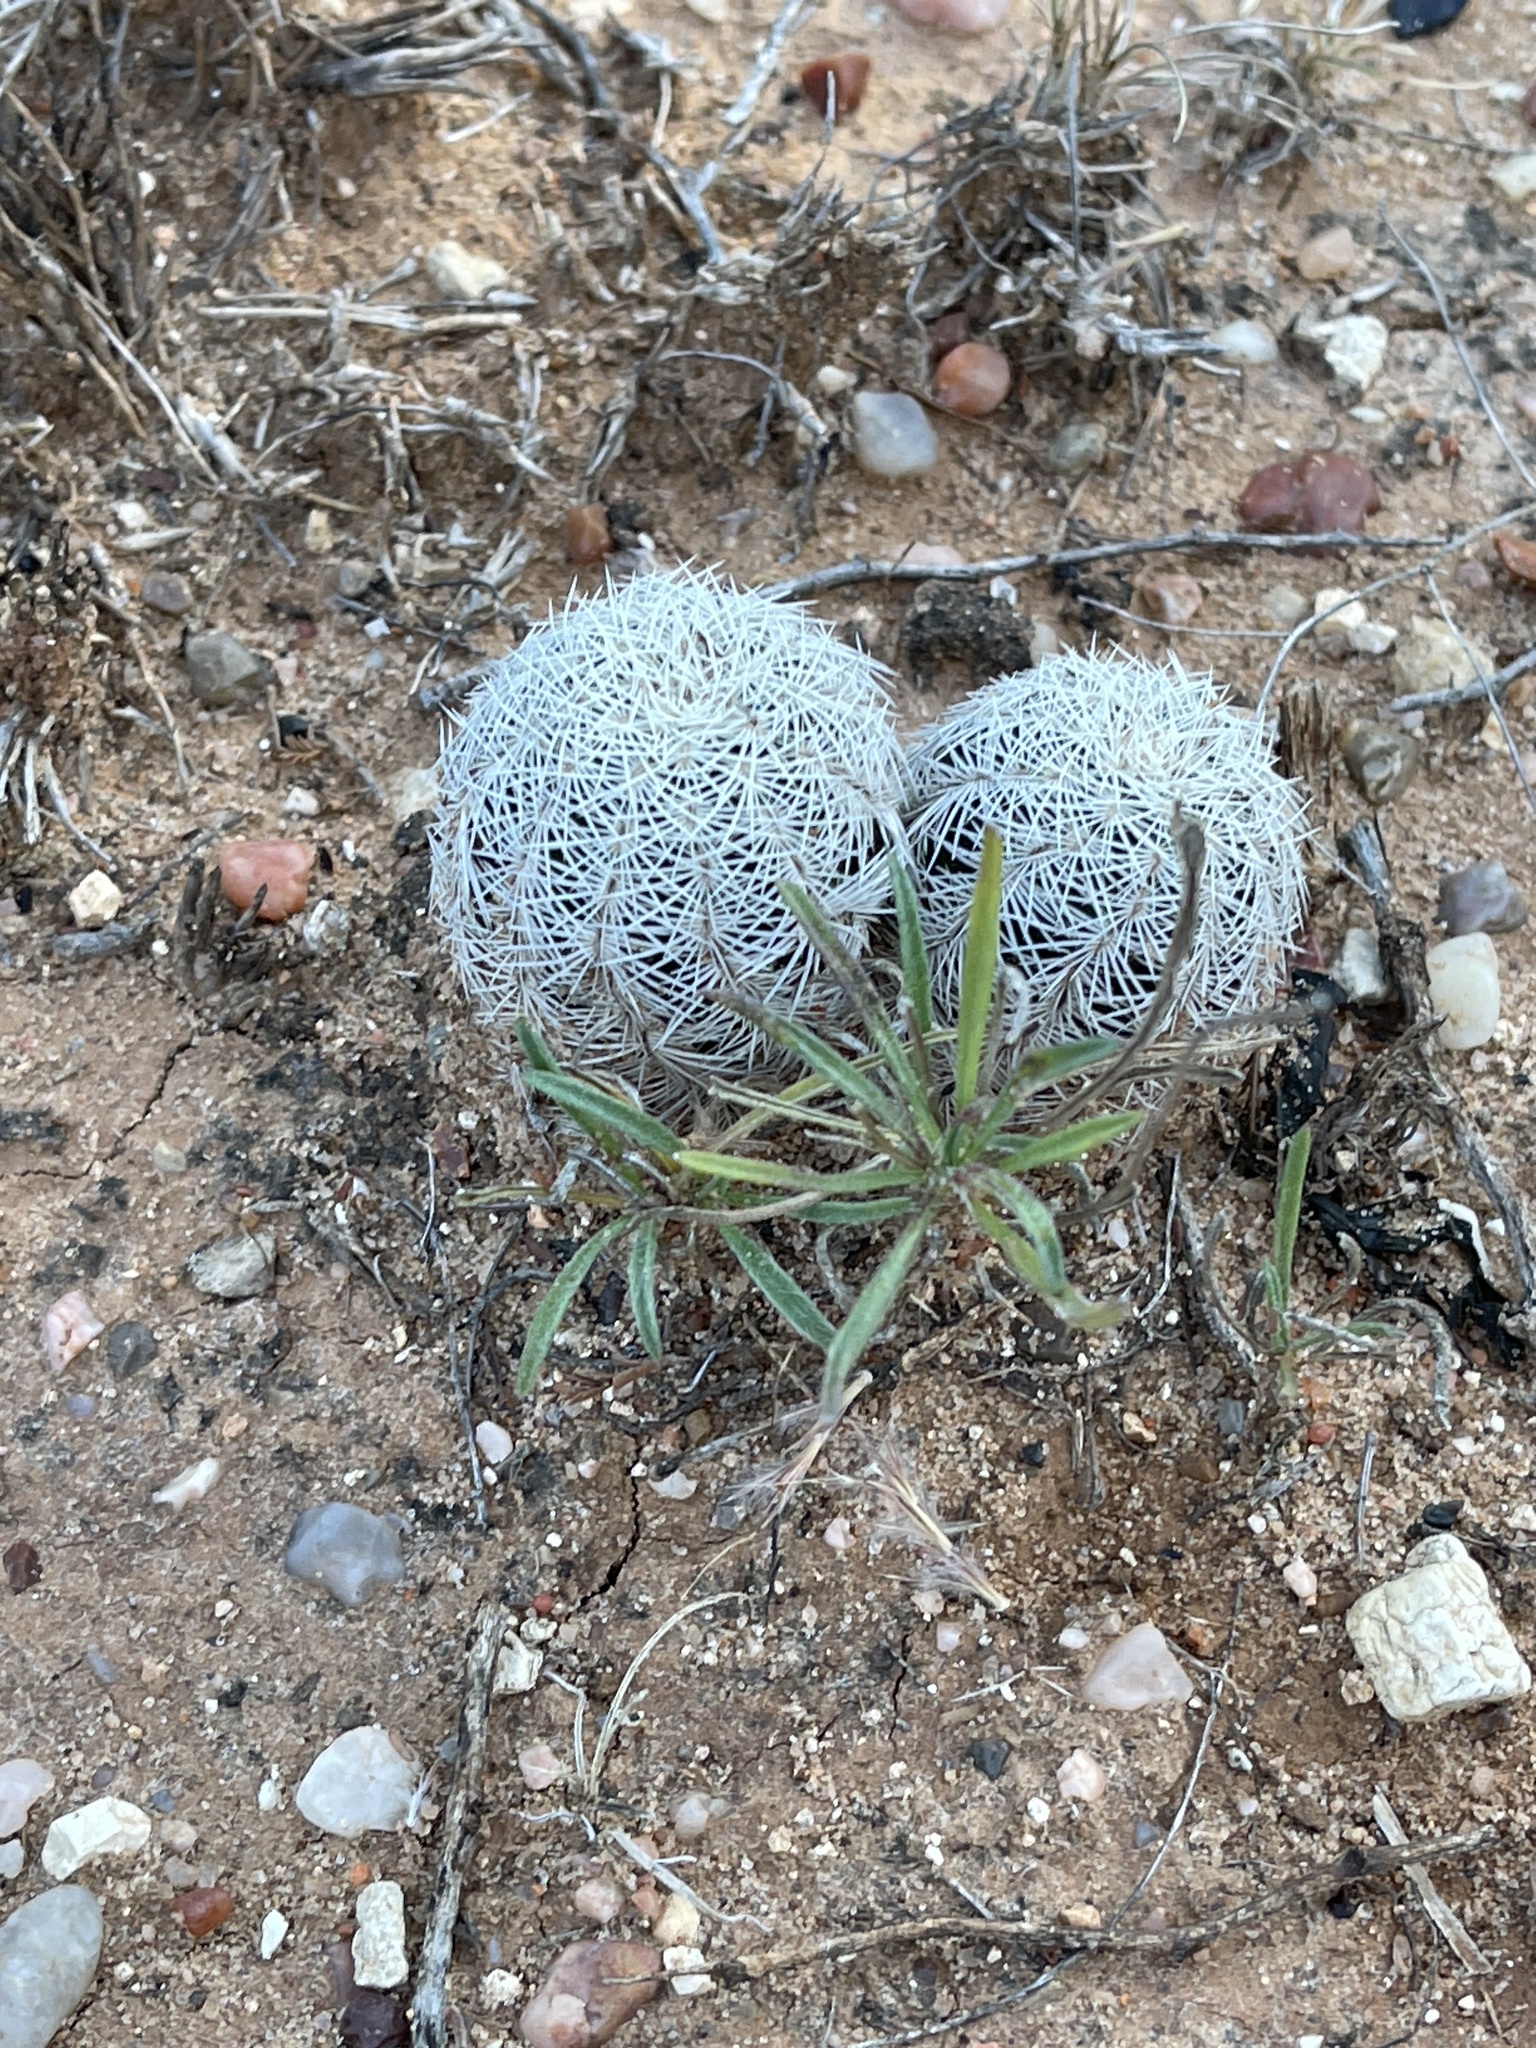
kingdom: Plantae
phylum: Tracheophyta
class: Magnoliopsida
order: Caryophyllales
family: Cactaceae
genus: Echinocereus
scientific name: Echinocereus reichenbachii
